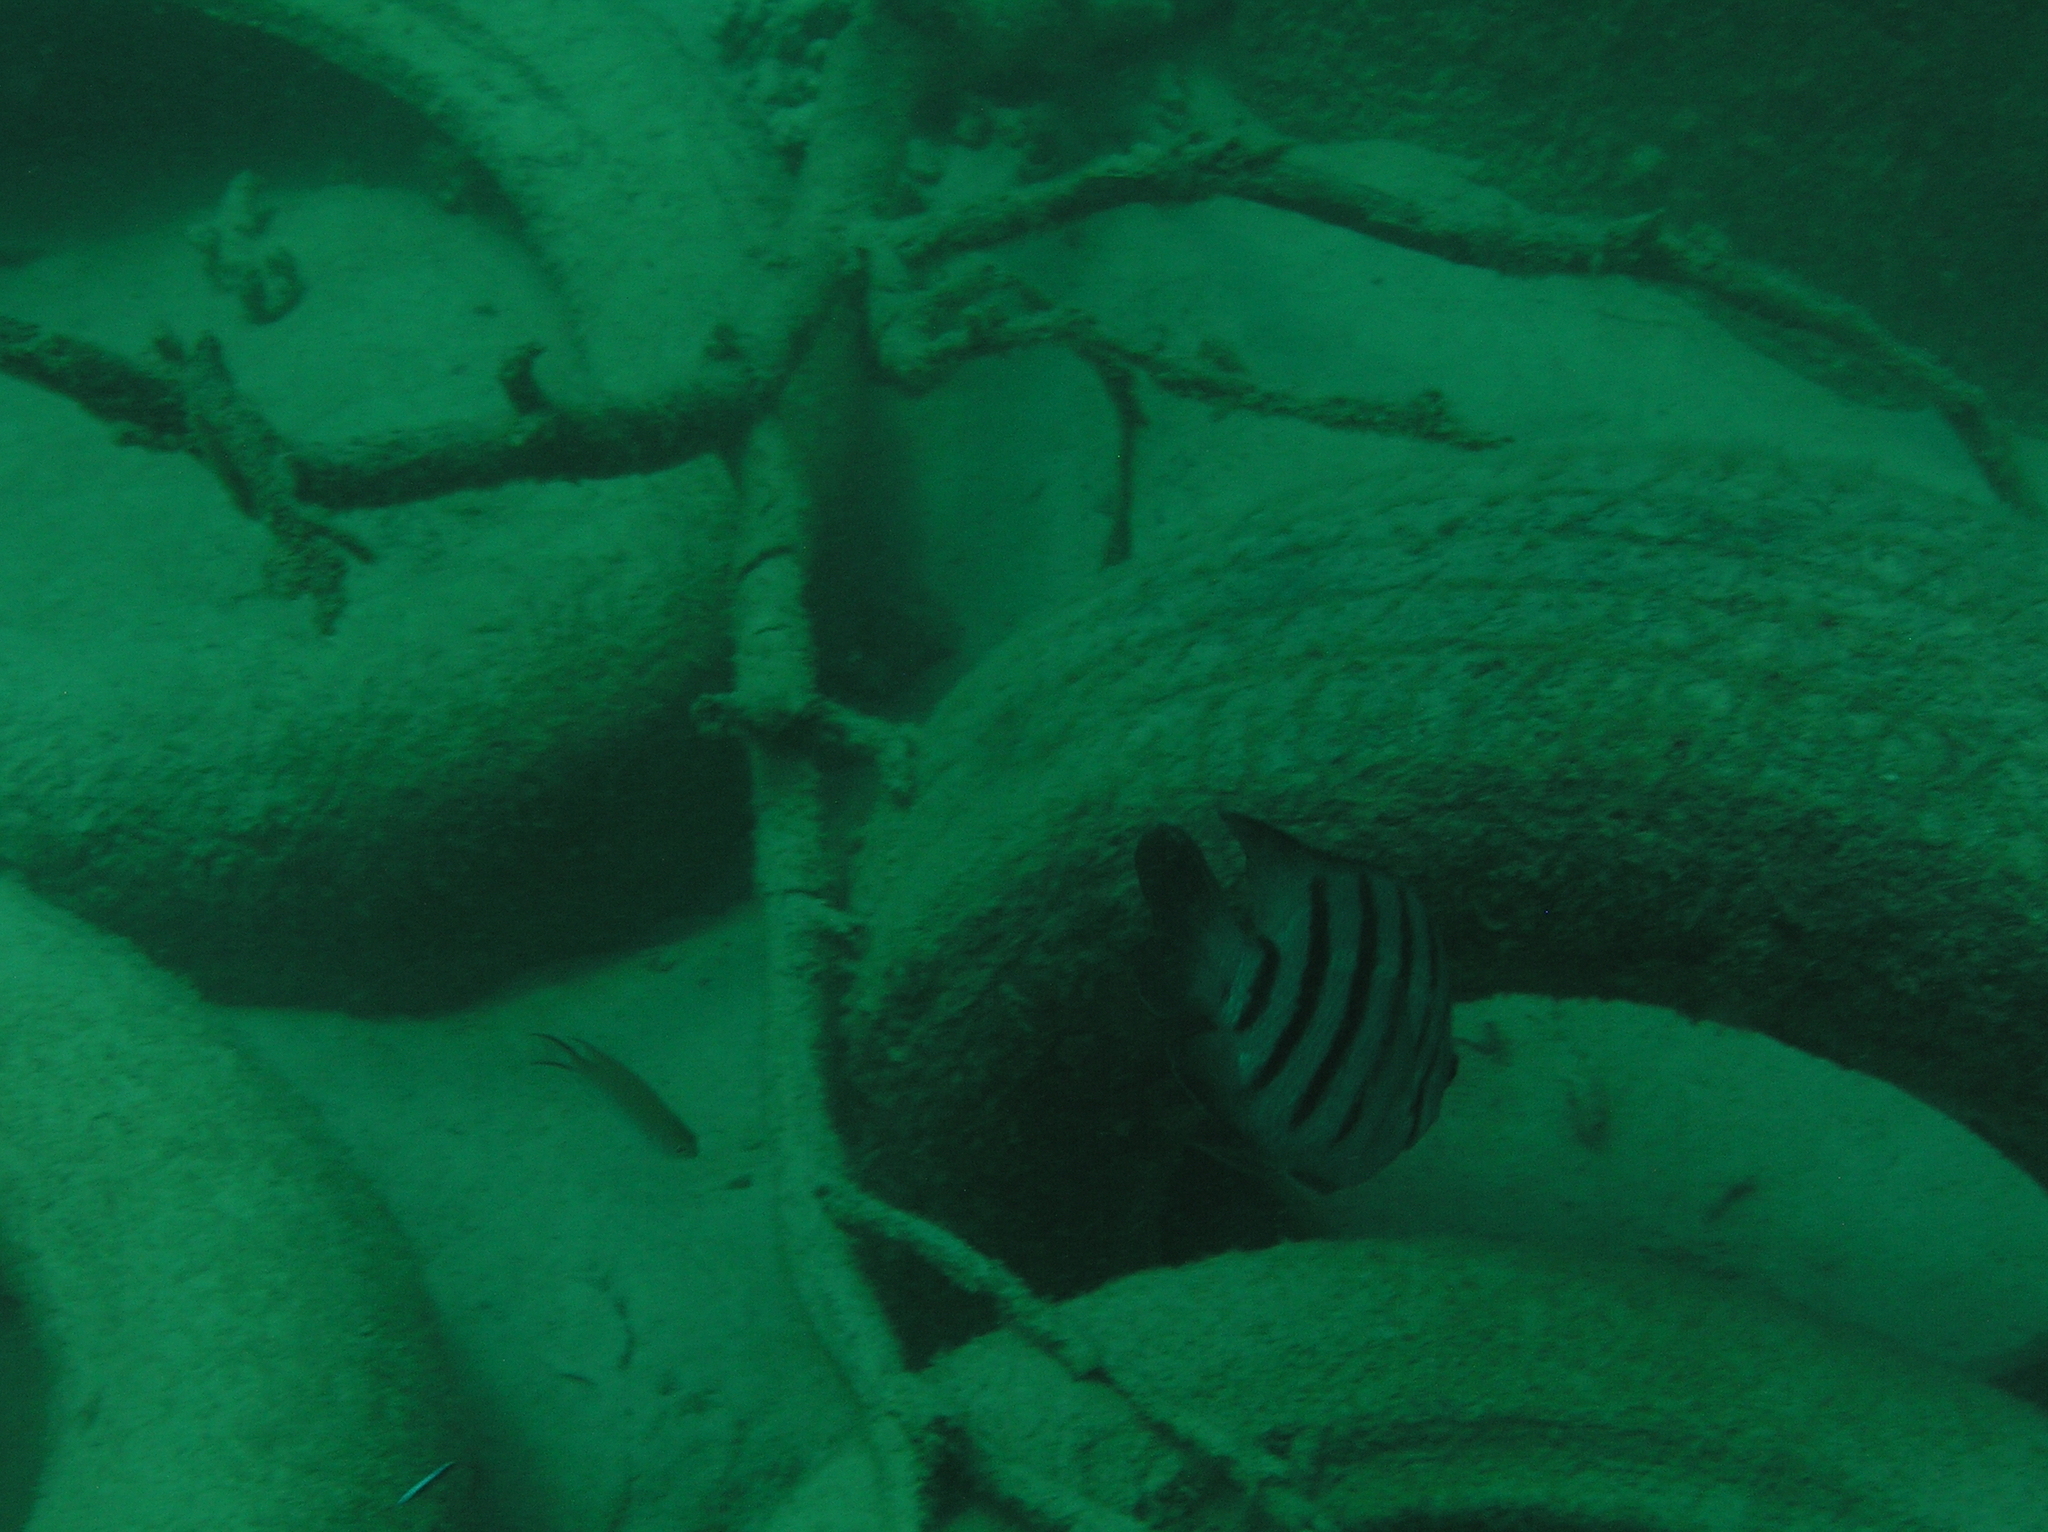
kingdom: Animalia
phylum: Chordata
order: Perciformes
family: Pomacentridae
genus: Abudefduf
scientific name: Abudefduf bengalensis
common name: Bengal sergeant
